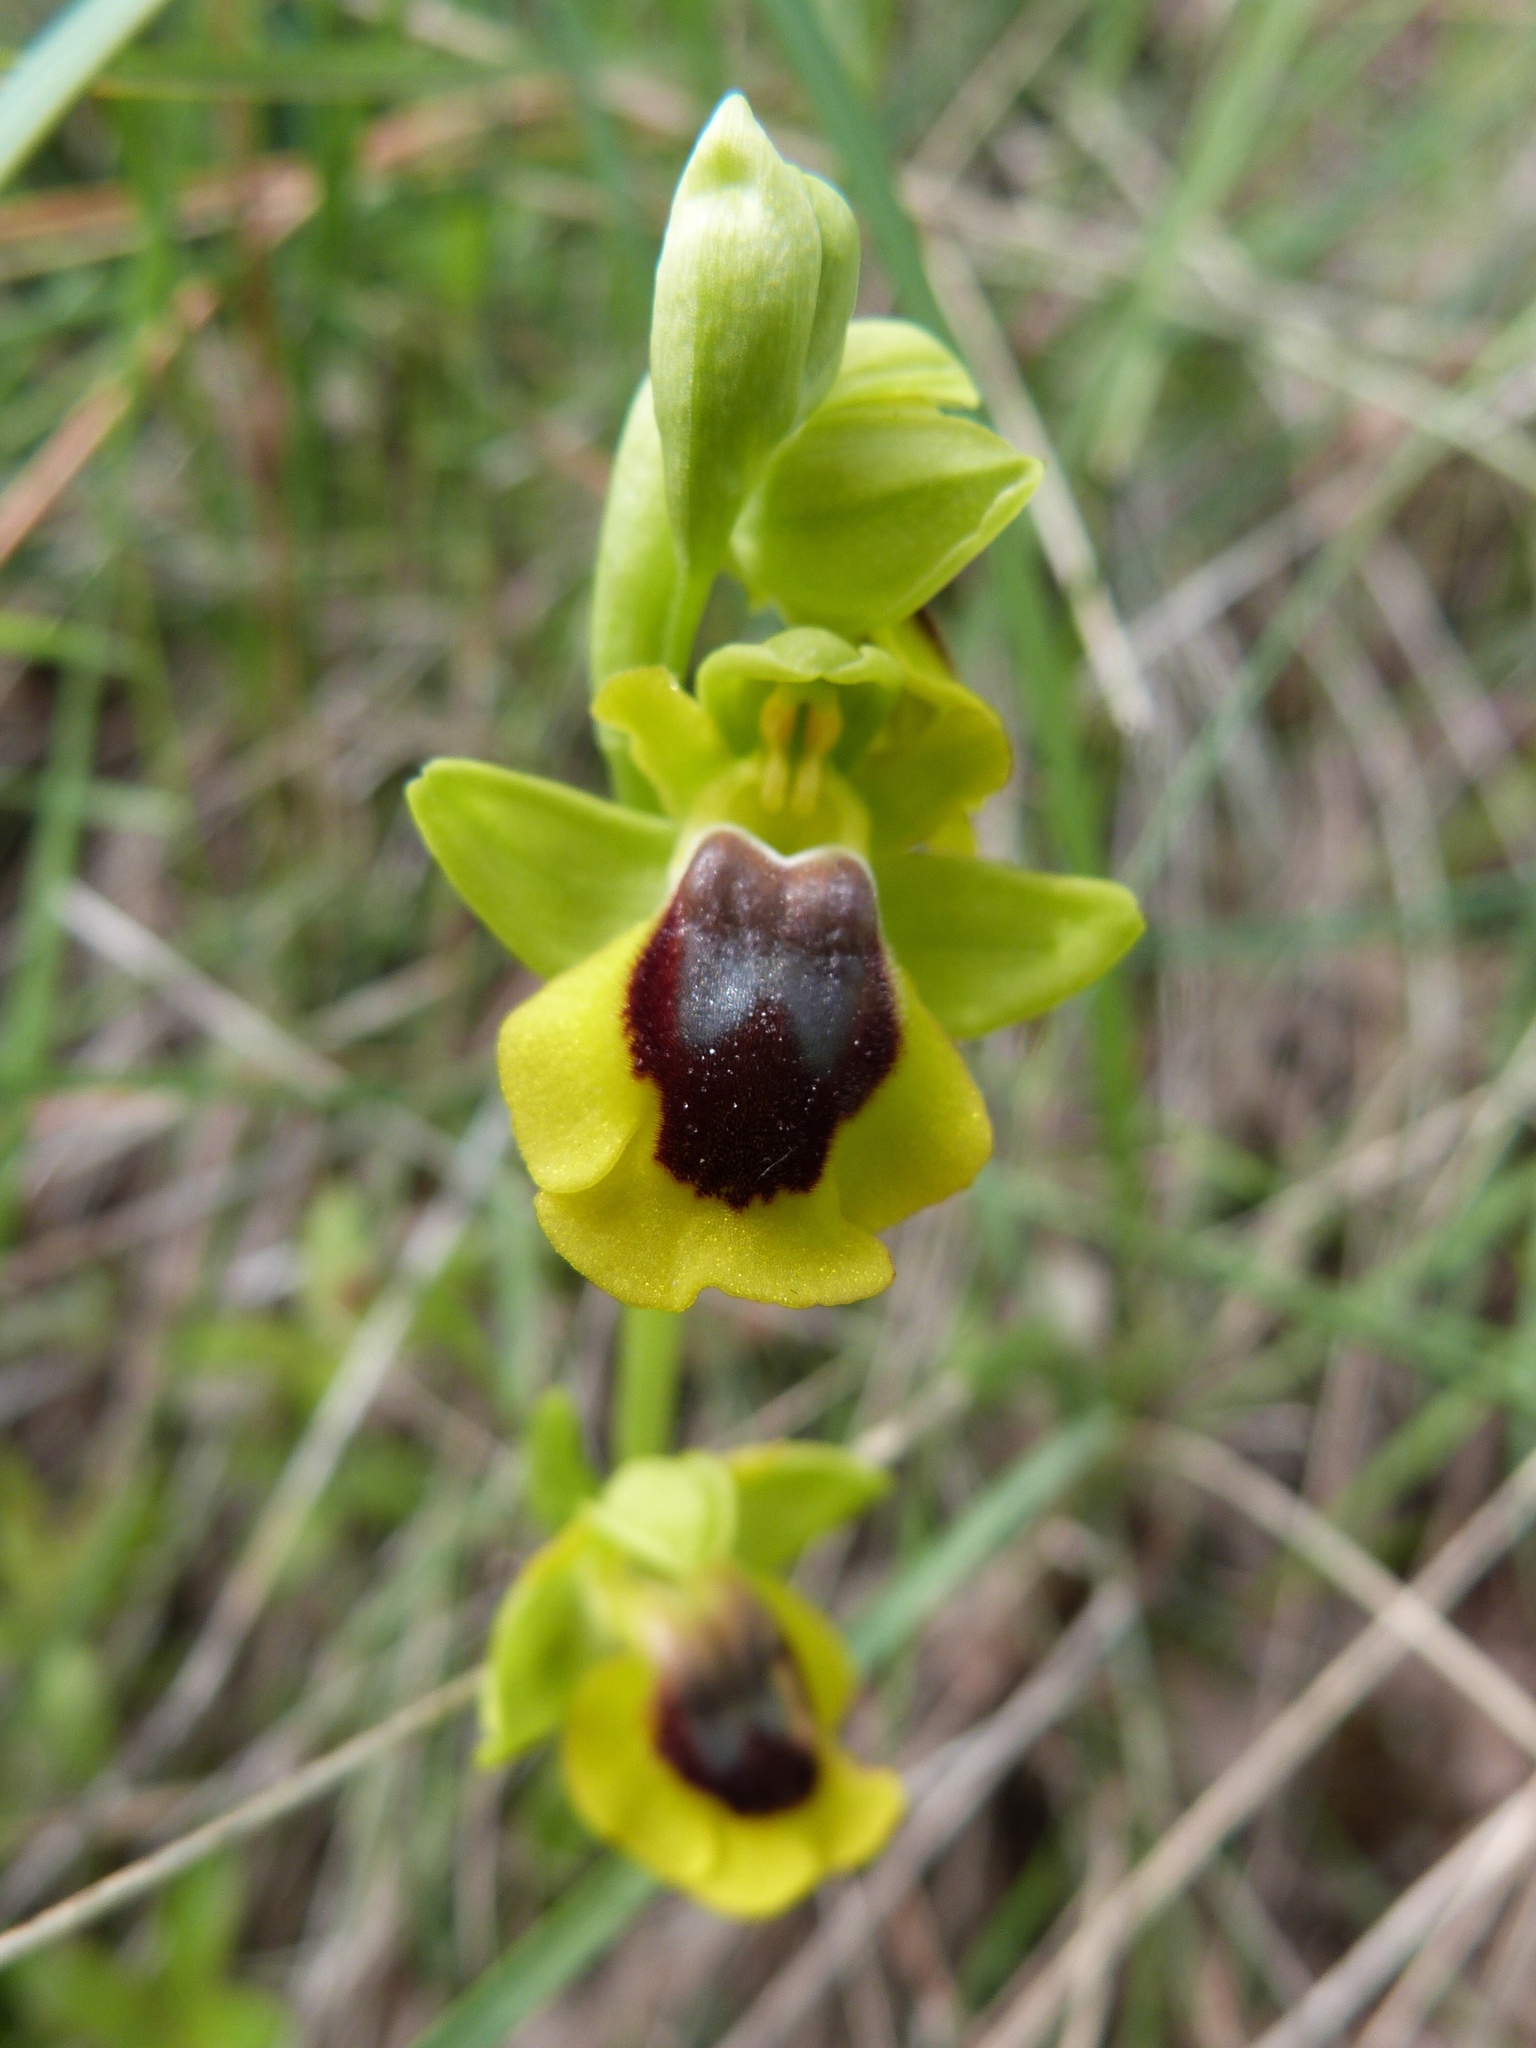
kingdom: Plantae
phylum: Tracheophyta
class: Liliopsida
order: Asparagales
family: Orchidaceae
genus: Ophrys
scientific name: Ophrys lutea
